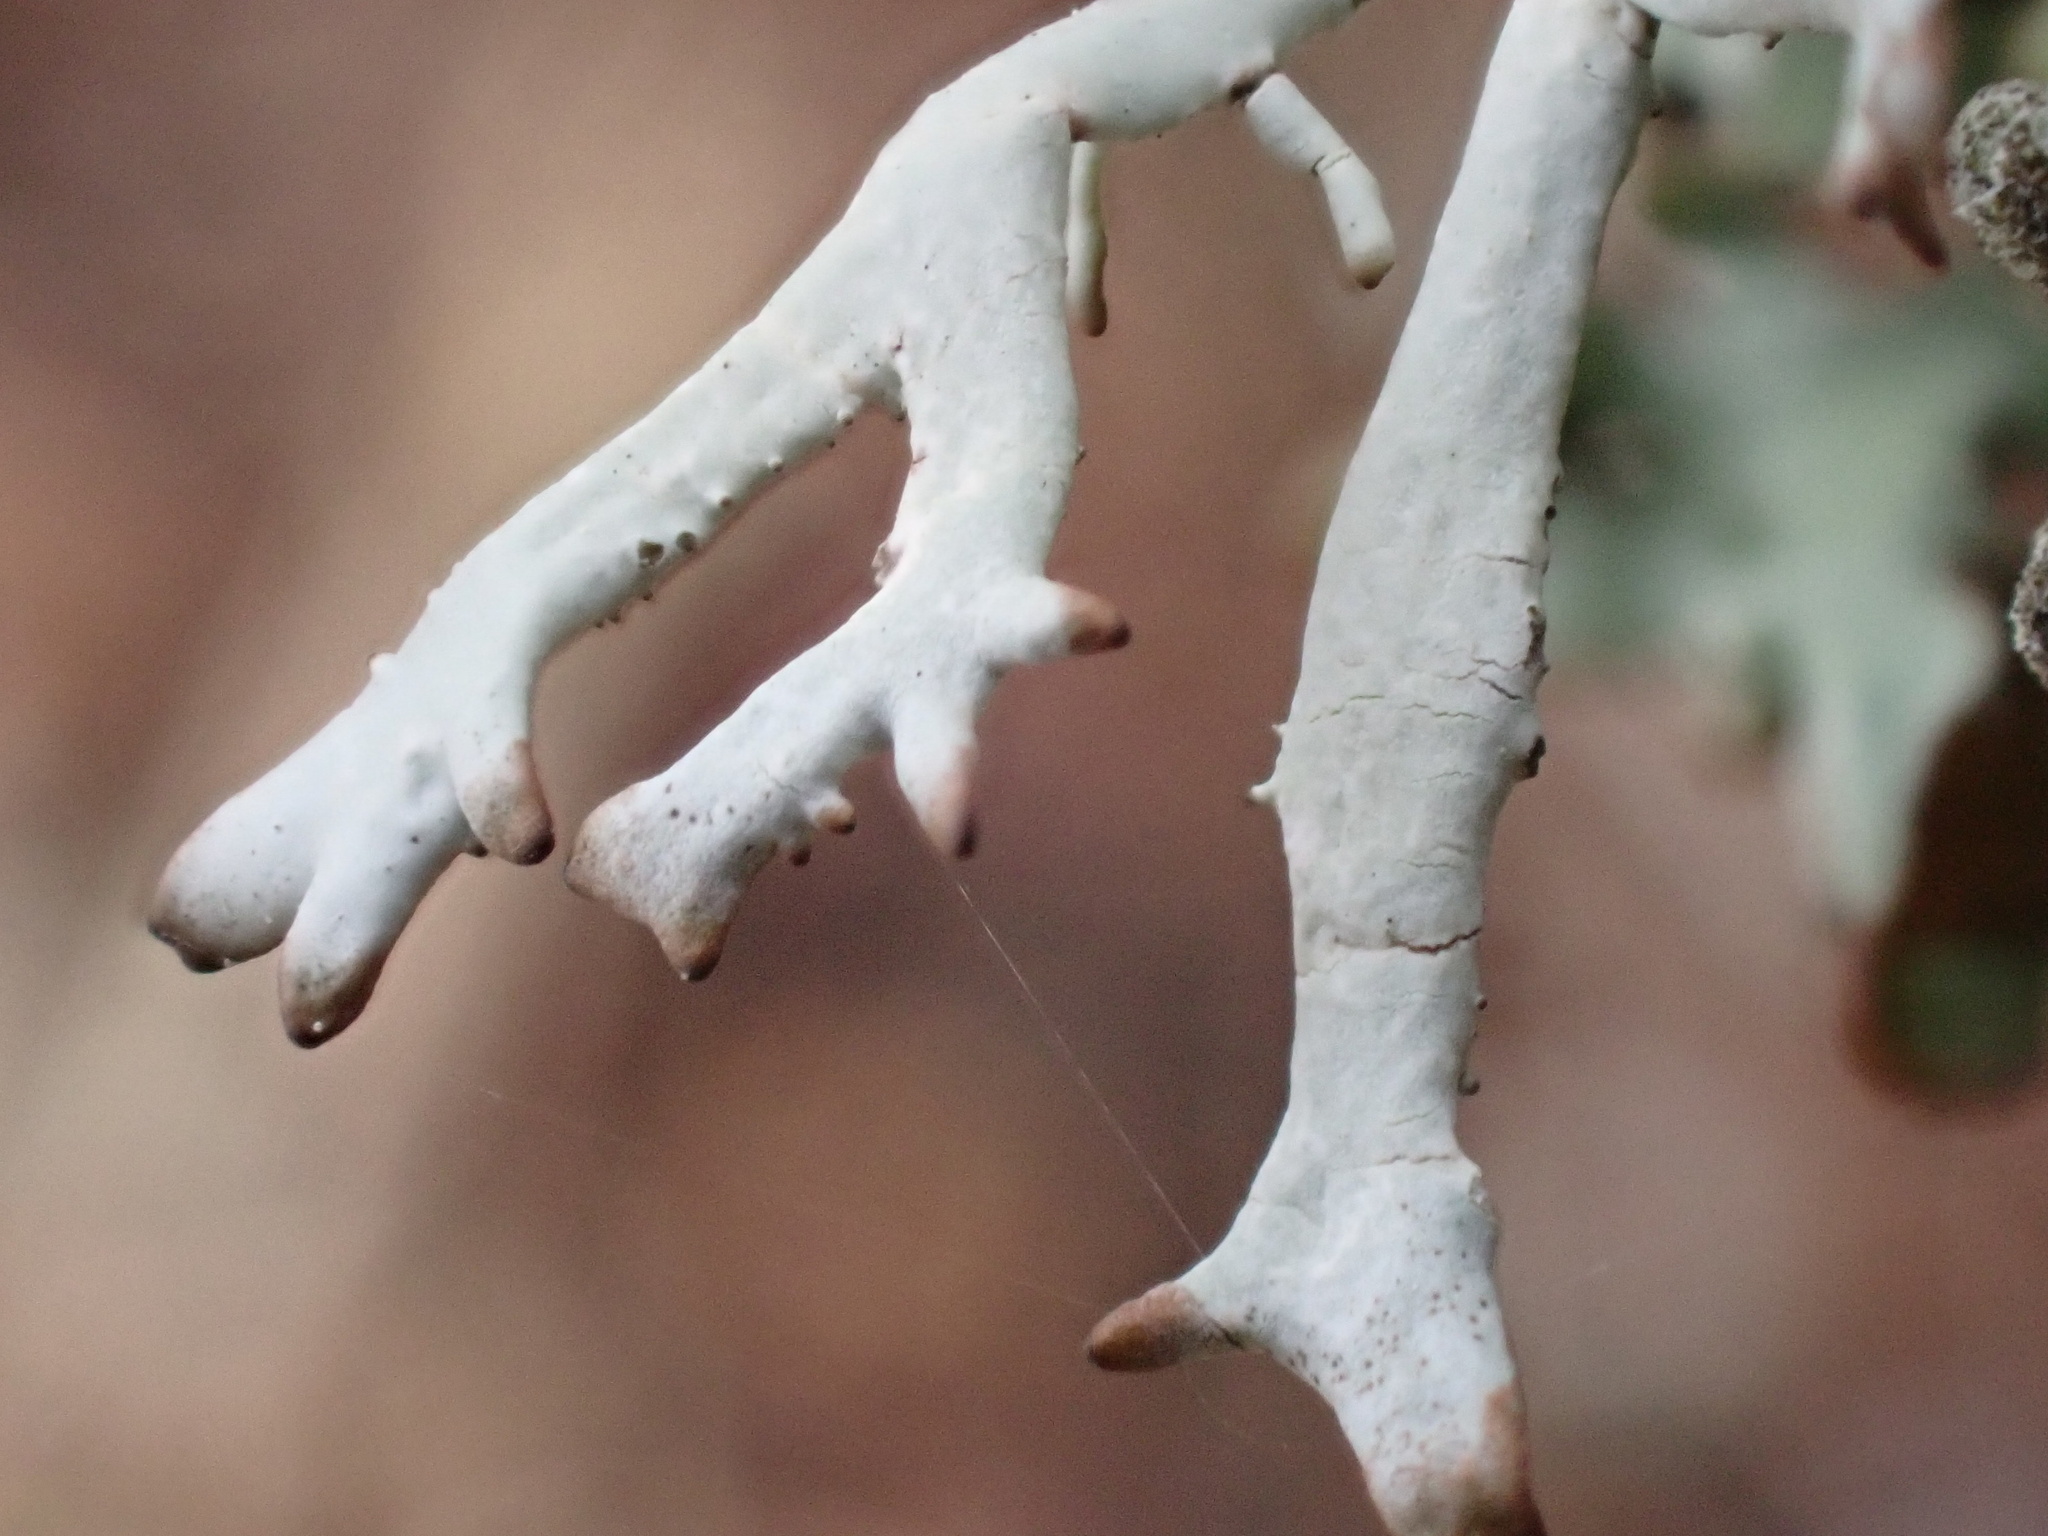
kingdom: Fungi
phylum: Ascomycota
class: Lecanoromycetes
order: Lecanorales
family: Parmeliaceae
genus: Pseudevernia
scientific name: Pseudevernia furfuracea
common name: Tree moss
